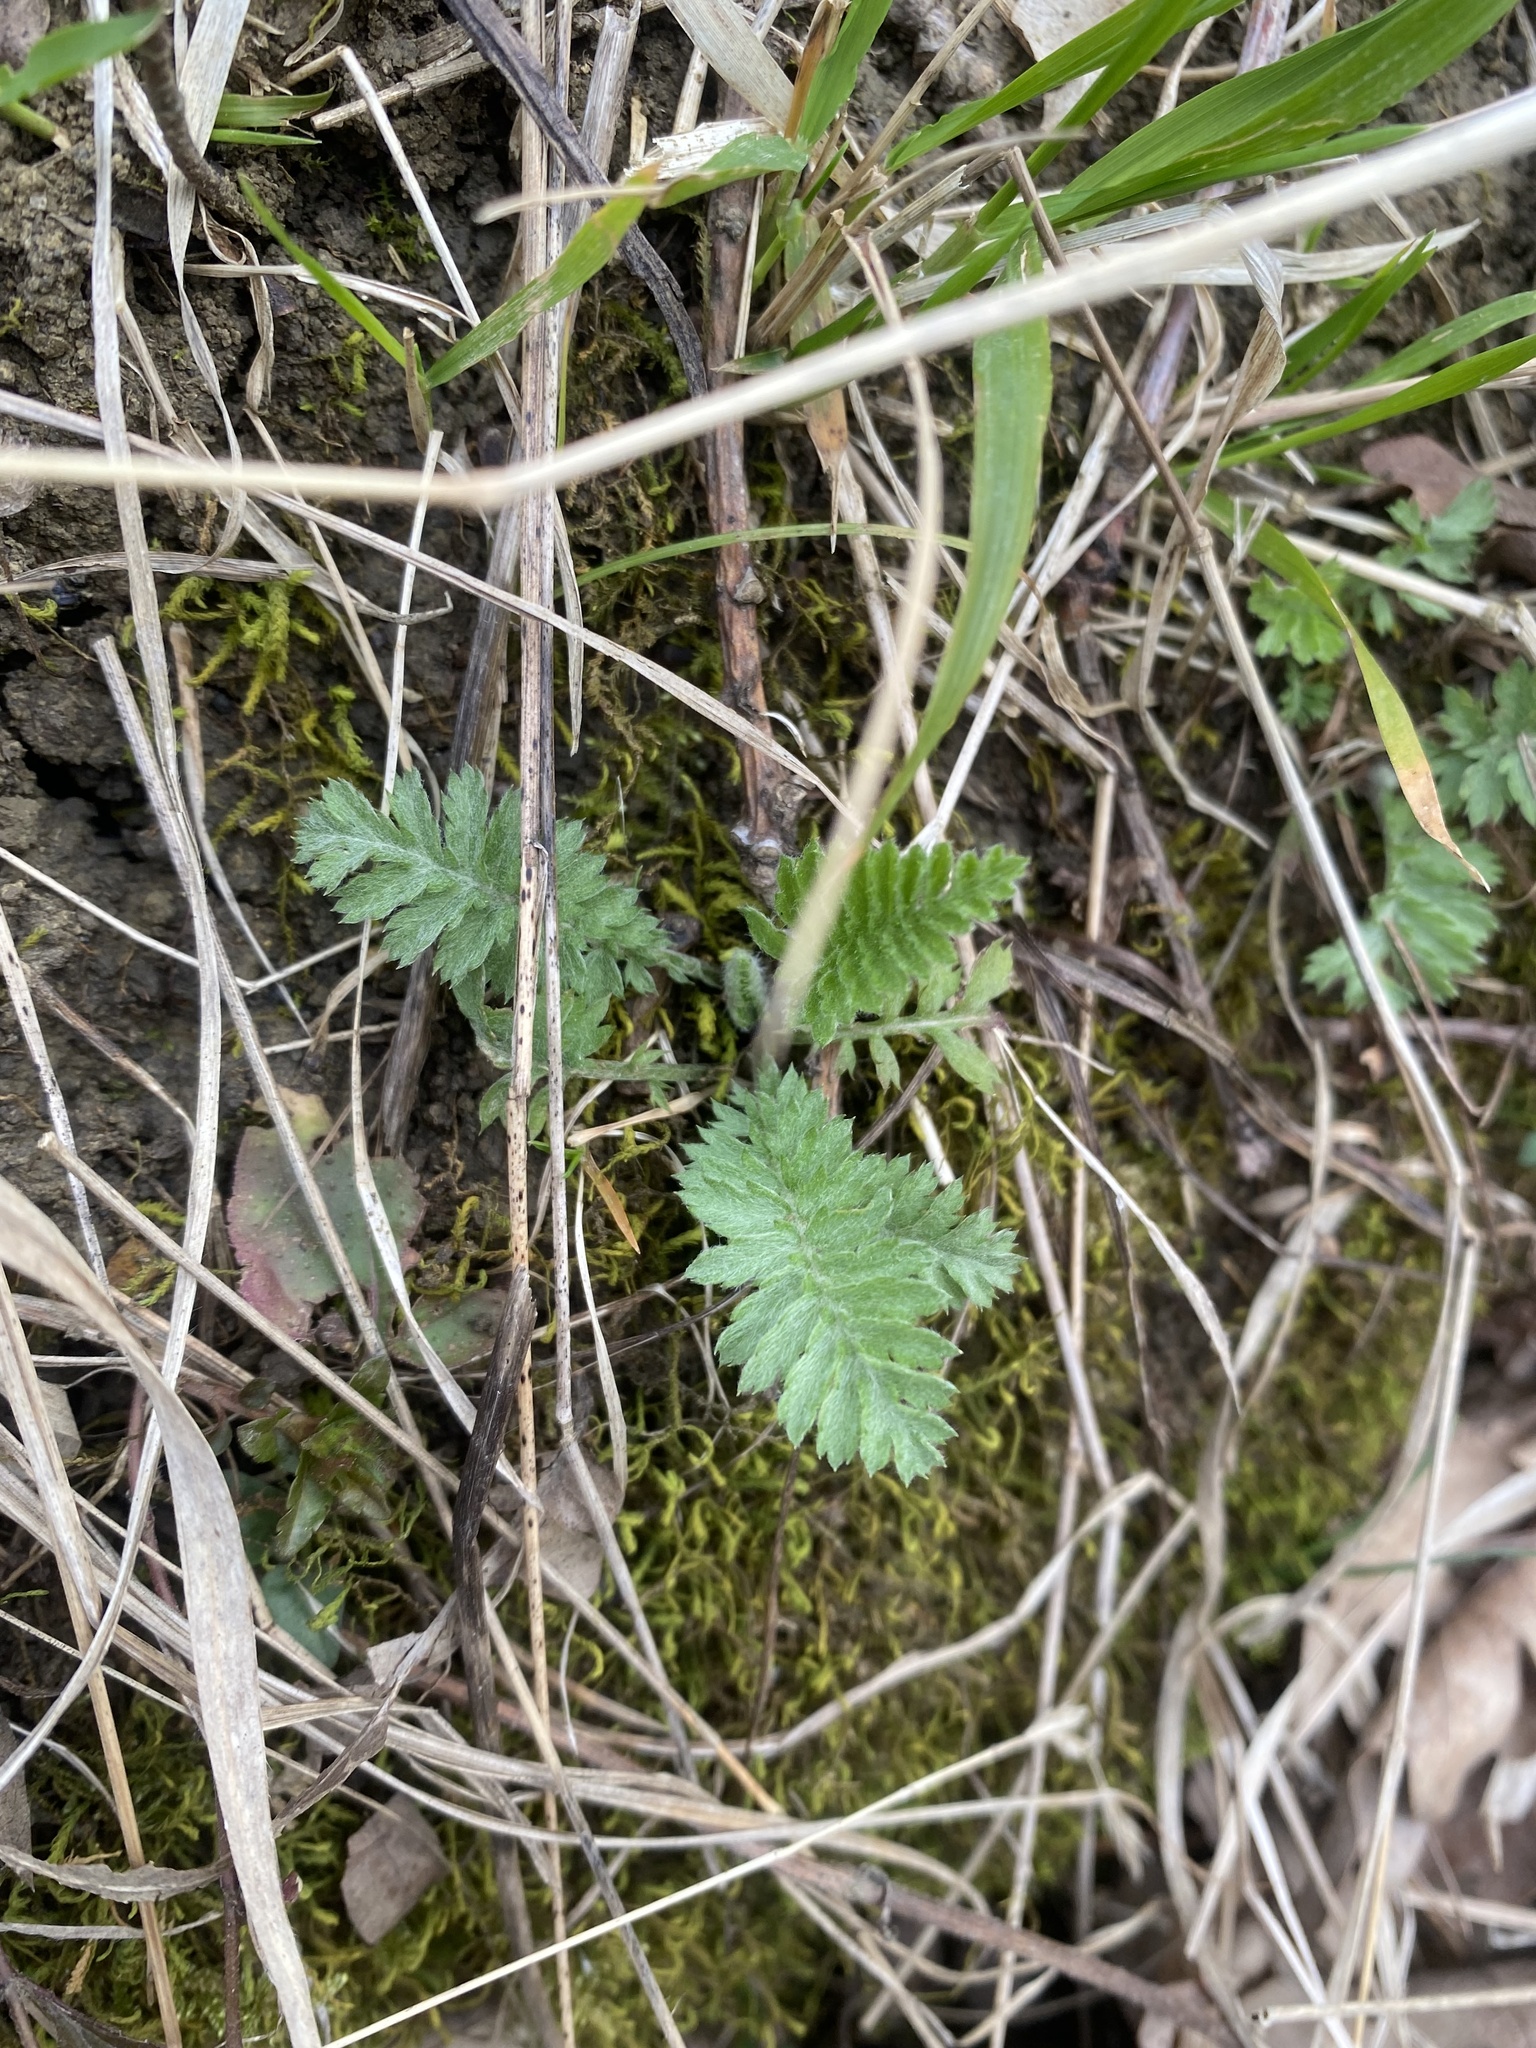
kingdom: Plantae
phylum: Tracheophyta
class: Magnoliopsida
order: Asterales
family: Asteraceae
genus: Tanacetum
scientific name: Tanacetum poteriifolium
